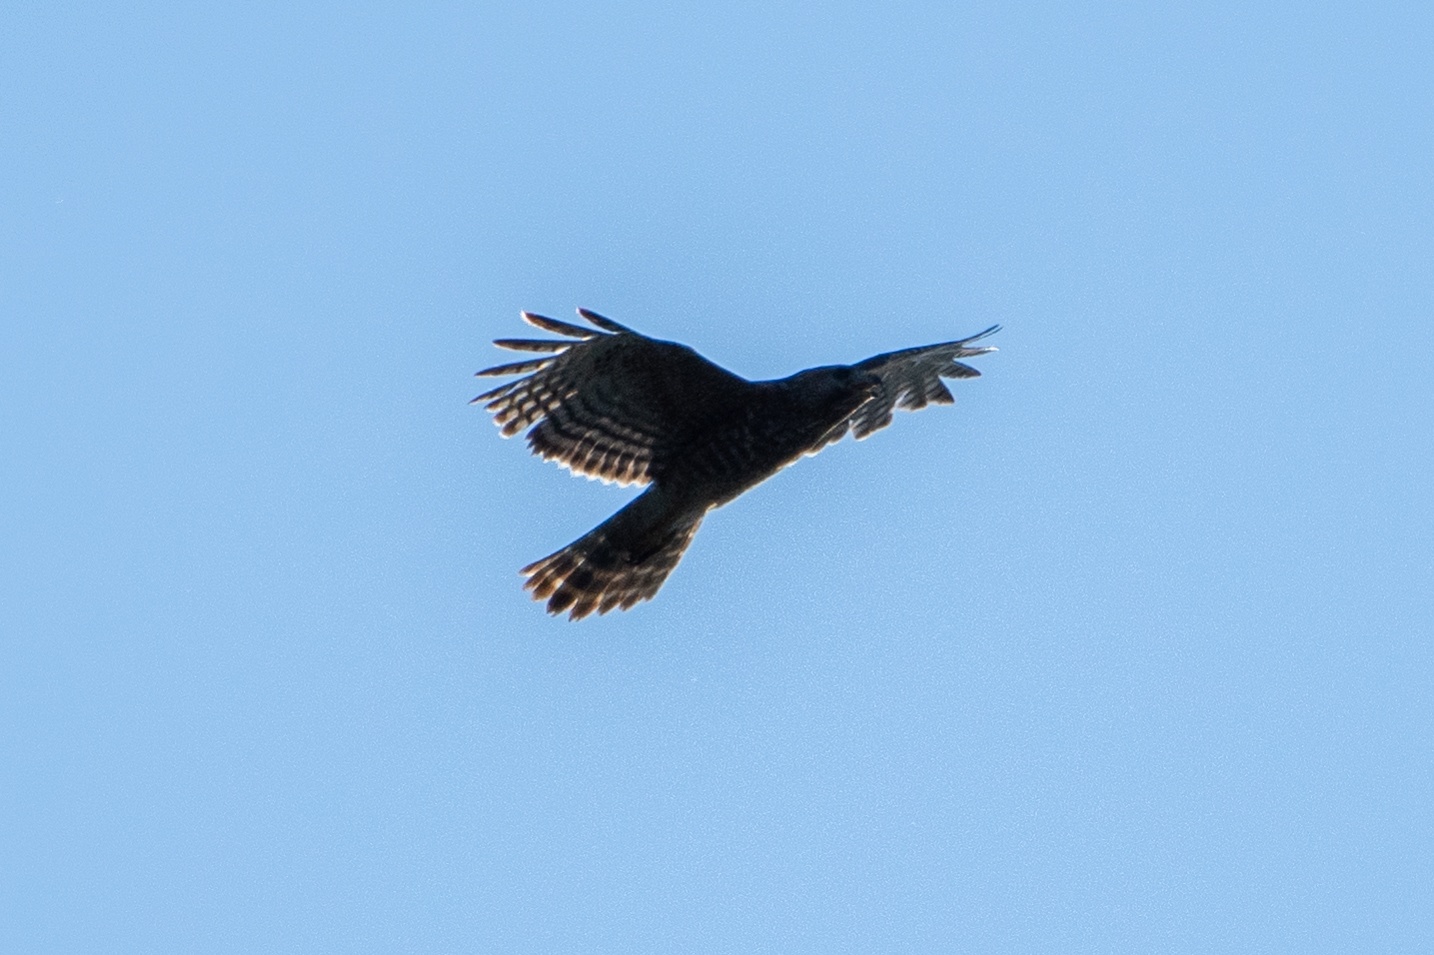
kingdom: Animalia
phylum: Chordata
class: Aves
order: Accipitriformes
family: Accipitridae
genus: Buteo
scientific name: Buteo lineatus
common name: Red-shouldered hawk
